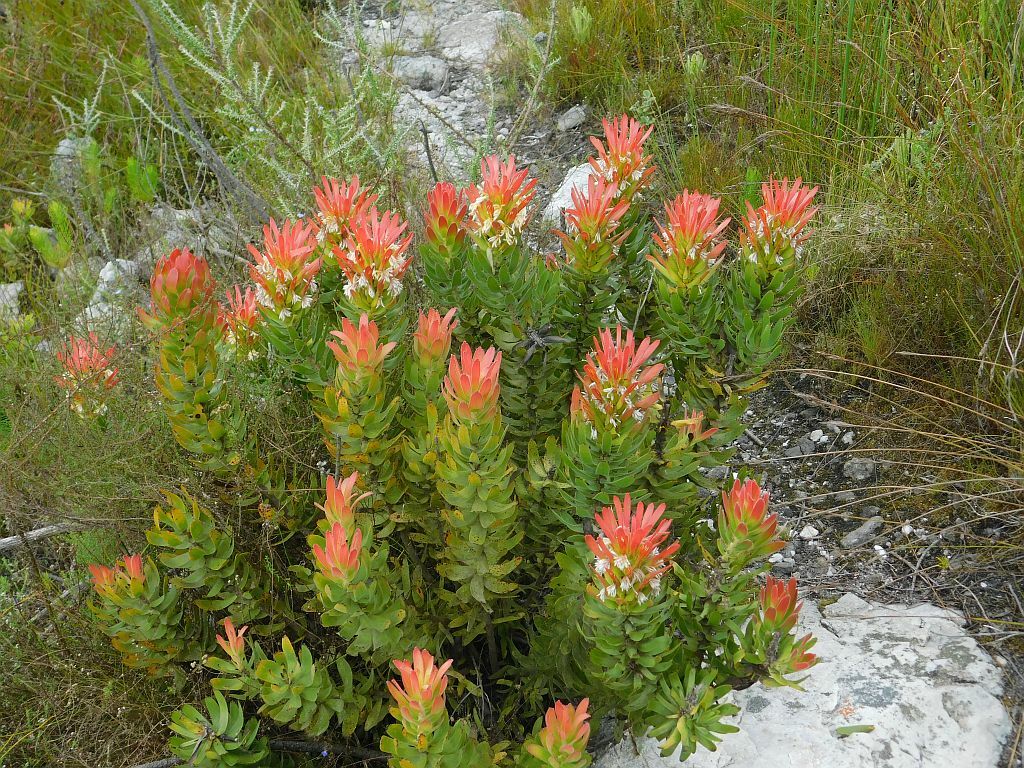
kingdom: Plantae
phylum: Tracheophyta
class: Magnoliopsida
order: Proteales
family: Proteaceae
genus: Mimetes
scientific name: Mimetes cucullatus
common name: Common pagoda
